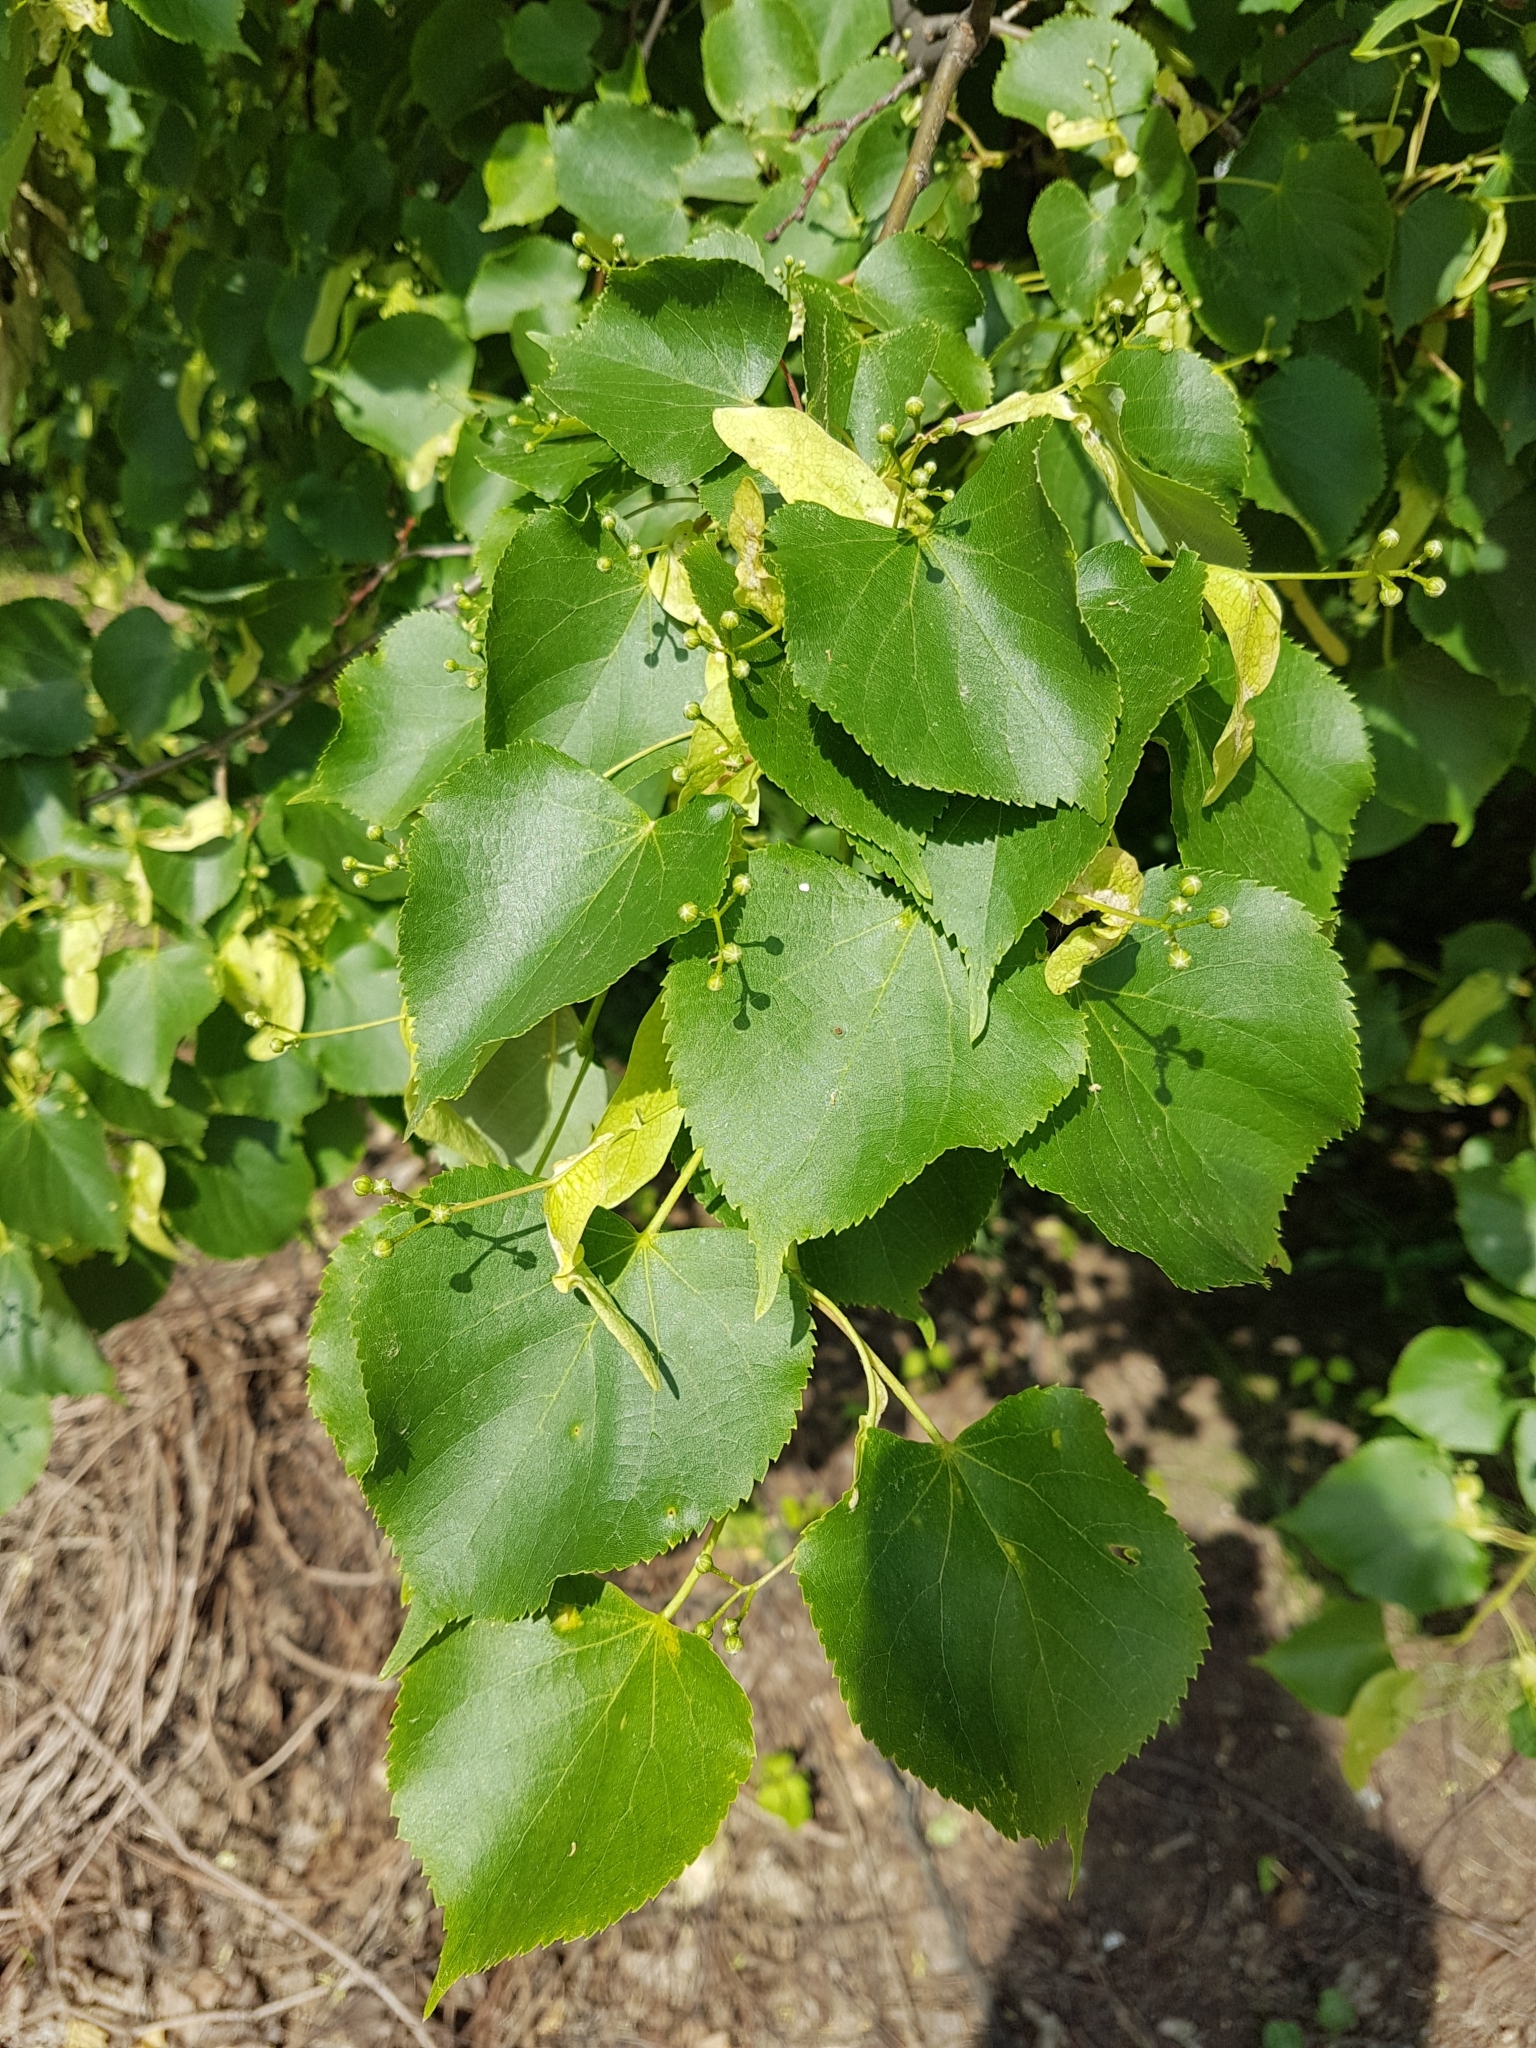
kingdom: Plantae
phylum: Tracheophyta
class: Magnoliopsida
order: Malvales
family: Malvaceae
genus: Tilia
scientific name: Tilia cordata
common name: Small-leaved lime
